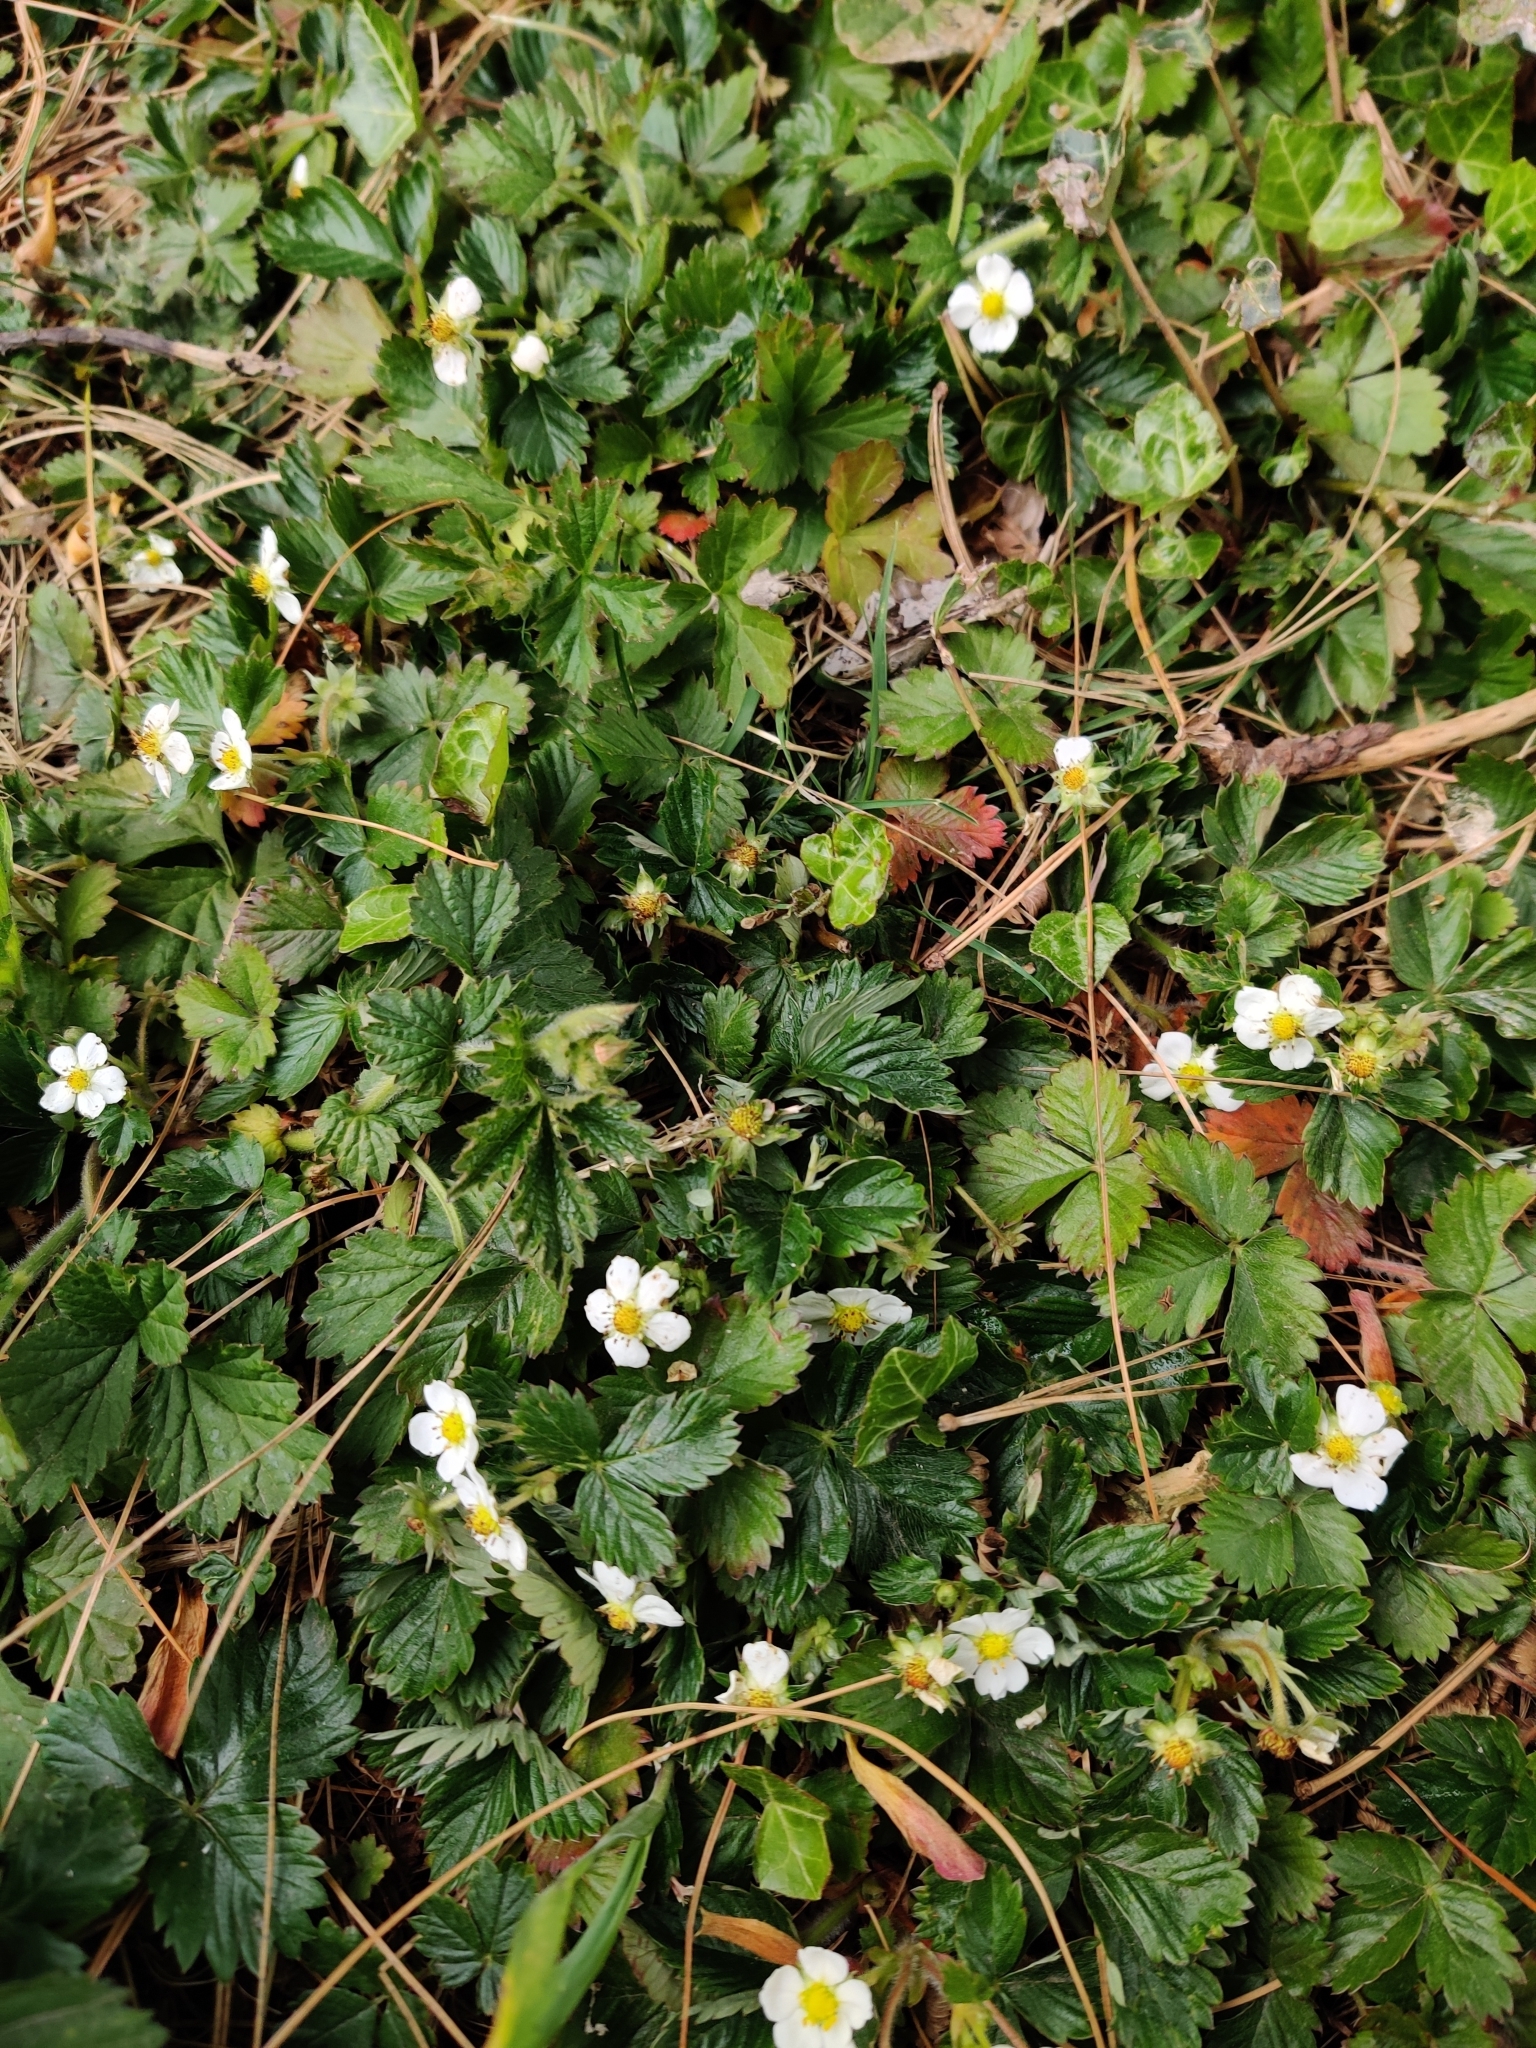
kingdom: Plantae
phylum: Tracheophyta
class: Magnoliopsida
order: Rosales
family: Rosaceae
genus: Fragaria
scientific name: Fragaria vesca
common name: Wild strawberry
